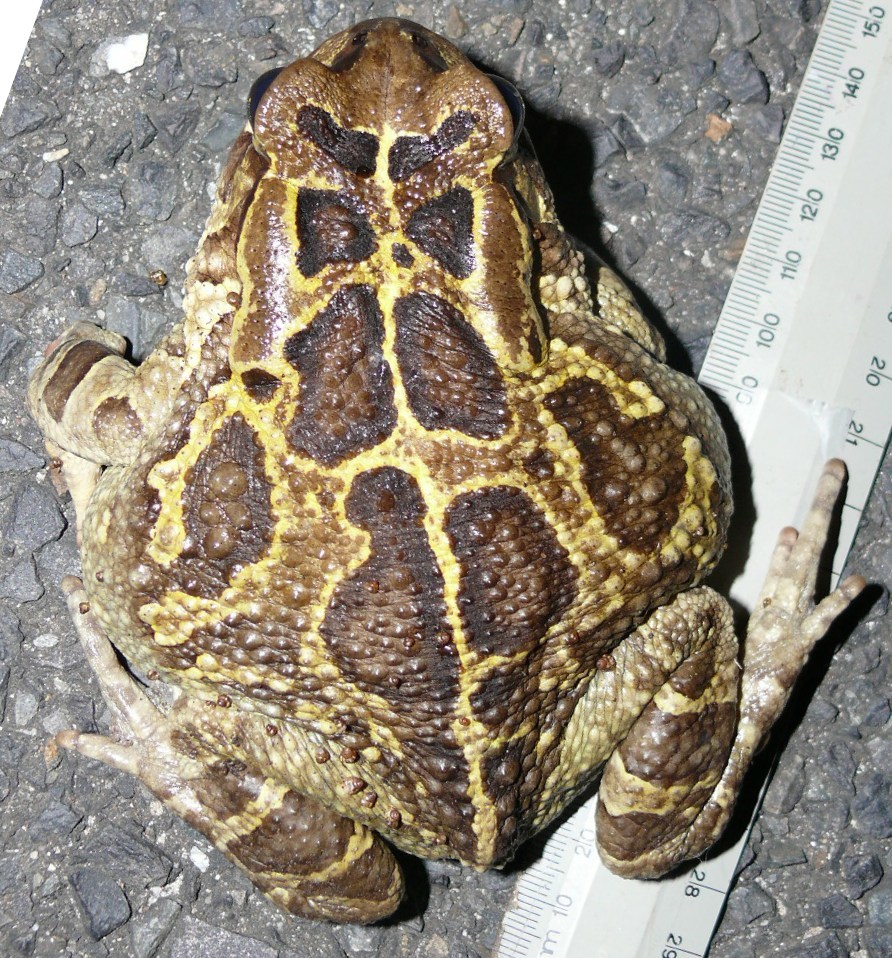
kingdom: Animalia
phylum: Chordata
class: Amphibia
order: Anura
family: Bufonidae
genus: Sclerophrys
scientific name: Sclerophrys pantherina
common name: Panther toad
